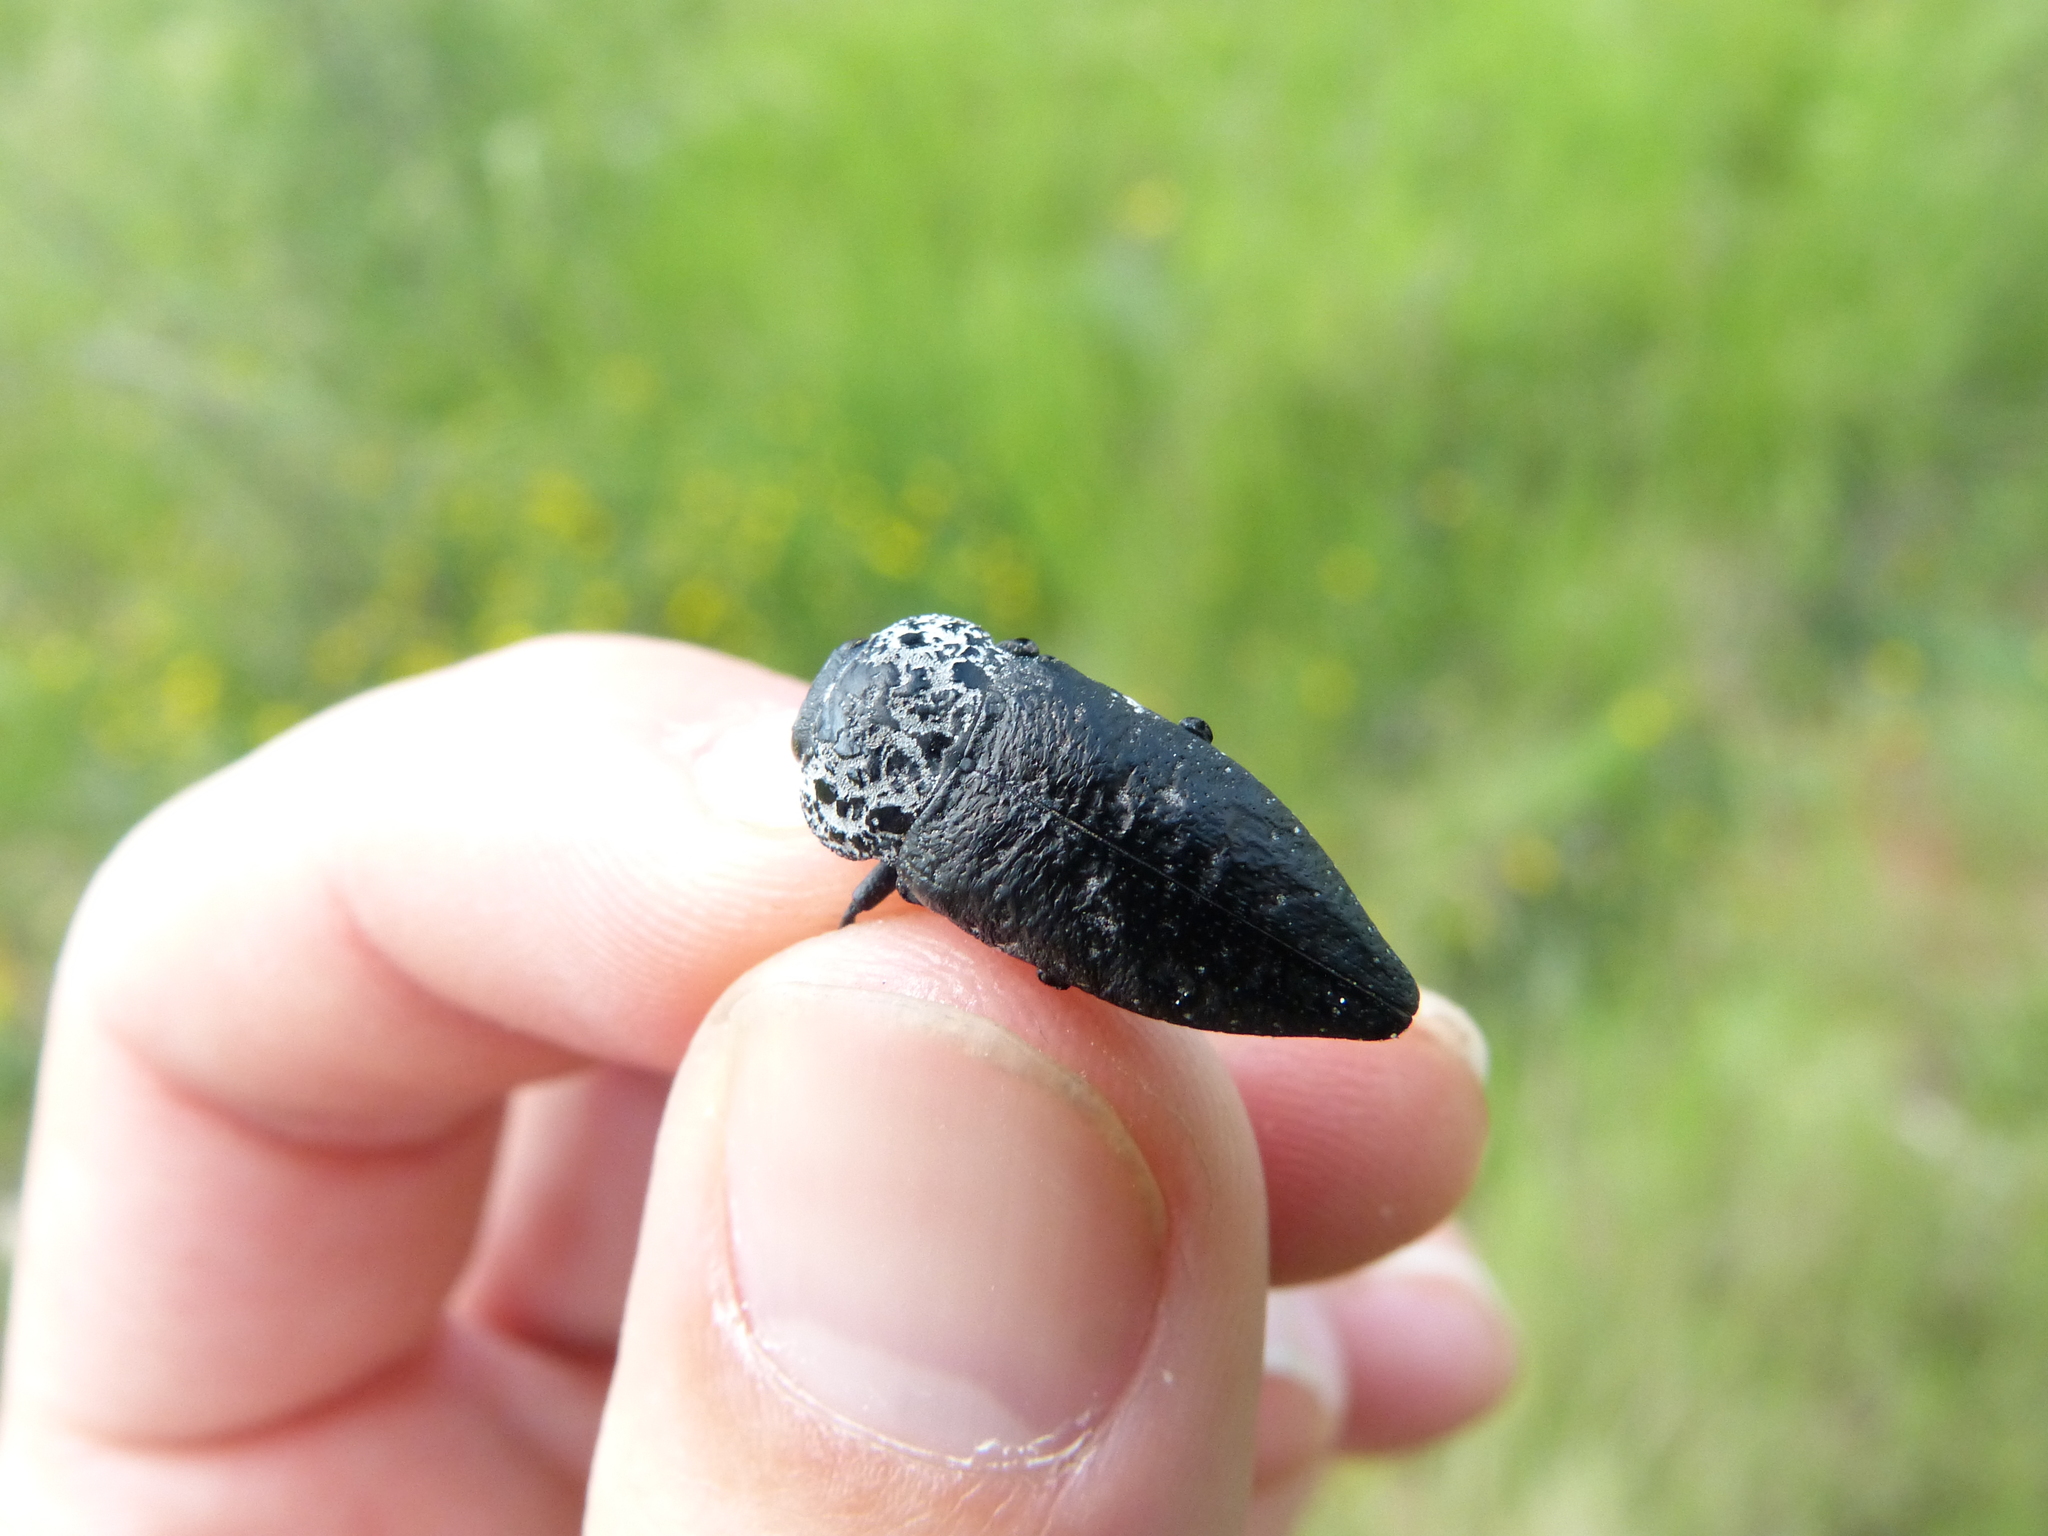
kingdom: Animalia
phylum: Arthropoda
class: Insecta
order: Coleoptera
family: Buprestidae
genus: Capnodis
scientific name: Capnodis tenebrionis
